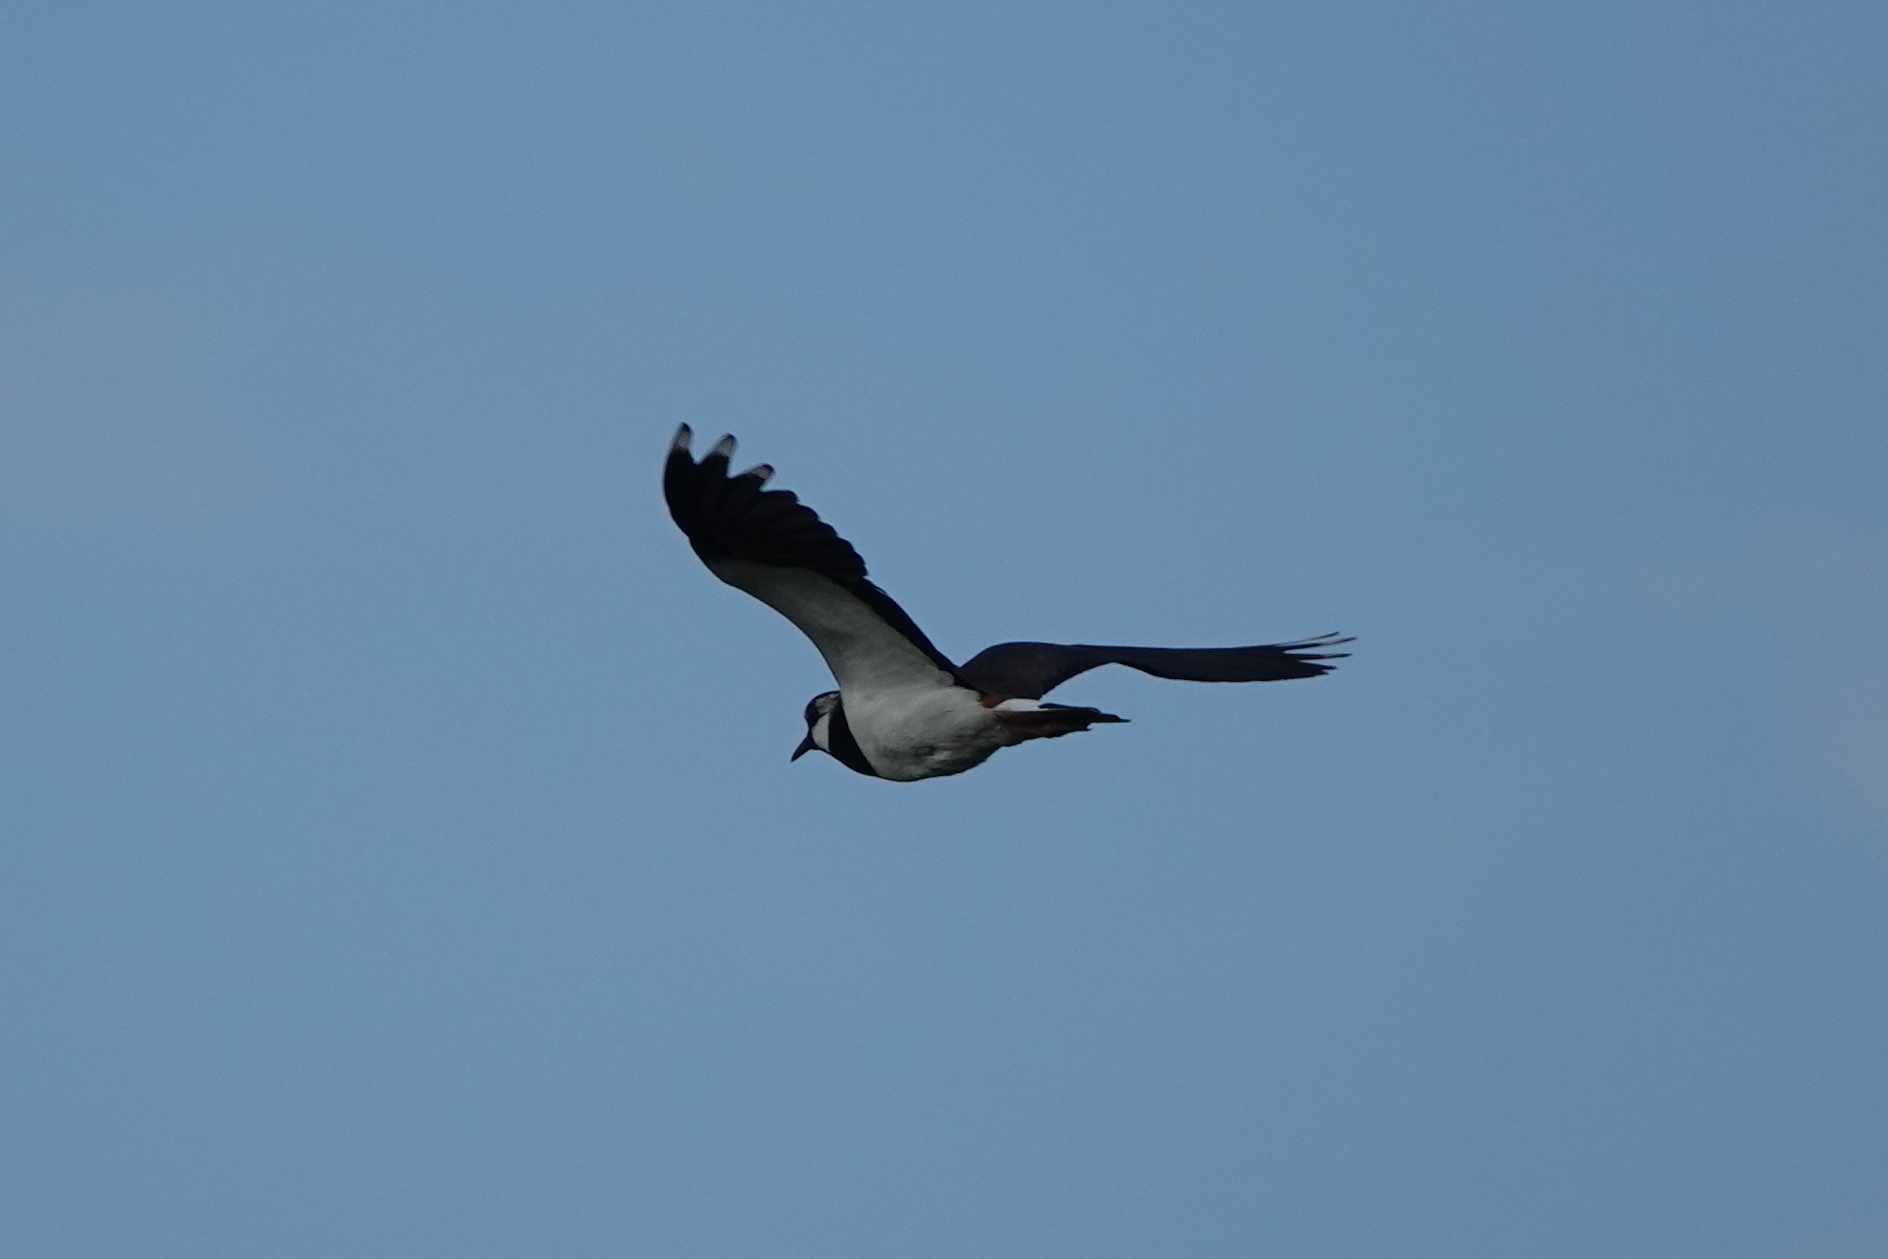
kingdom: Animalia
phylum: Chordata
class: Aves
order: Charadriiformes
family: Charadriidae
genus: Vanellus
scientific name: Vanellus vanellus
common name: Northern lapwing
